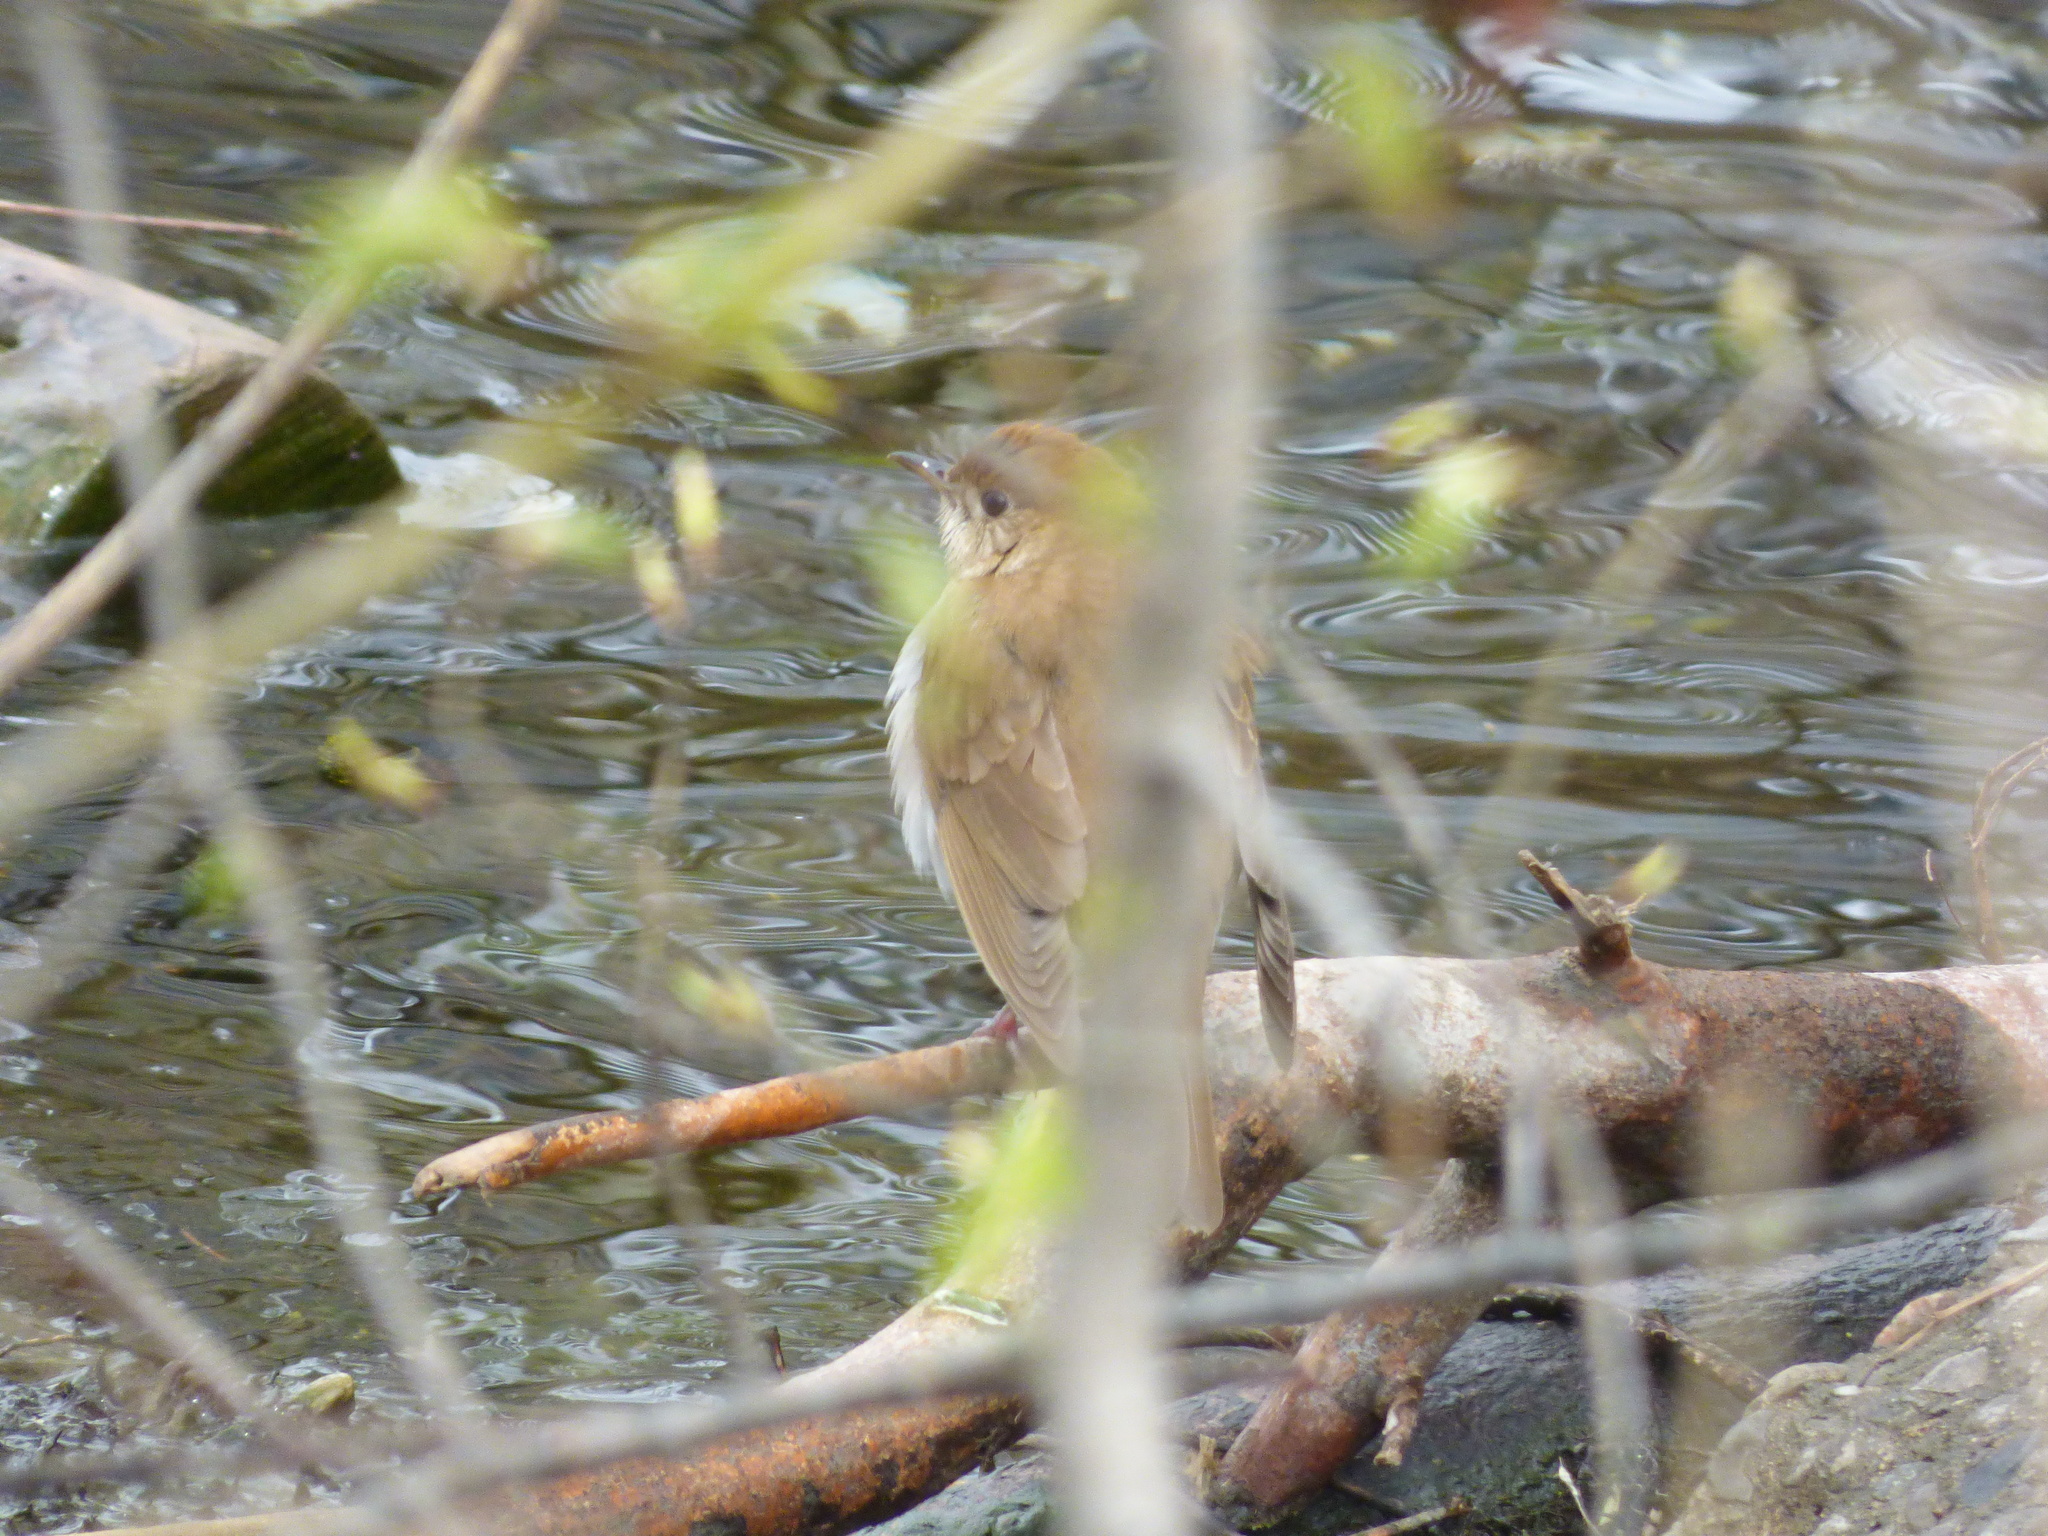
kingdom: Animalia
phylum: Chordata
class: Aves
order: Passeriformes
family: Turdidae
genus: Catharus
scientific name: Catharus fuscescens
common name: Veery
